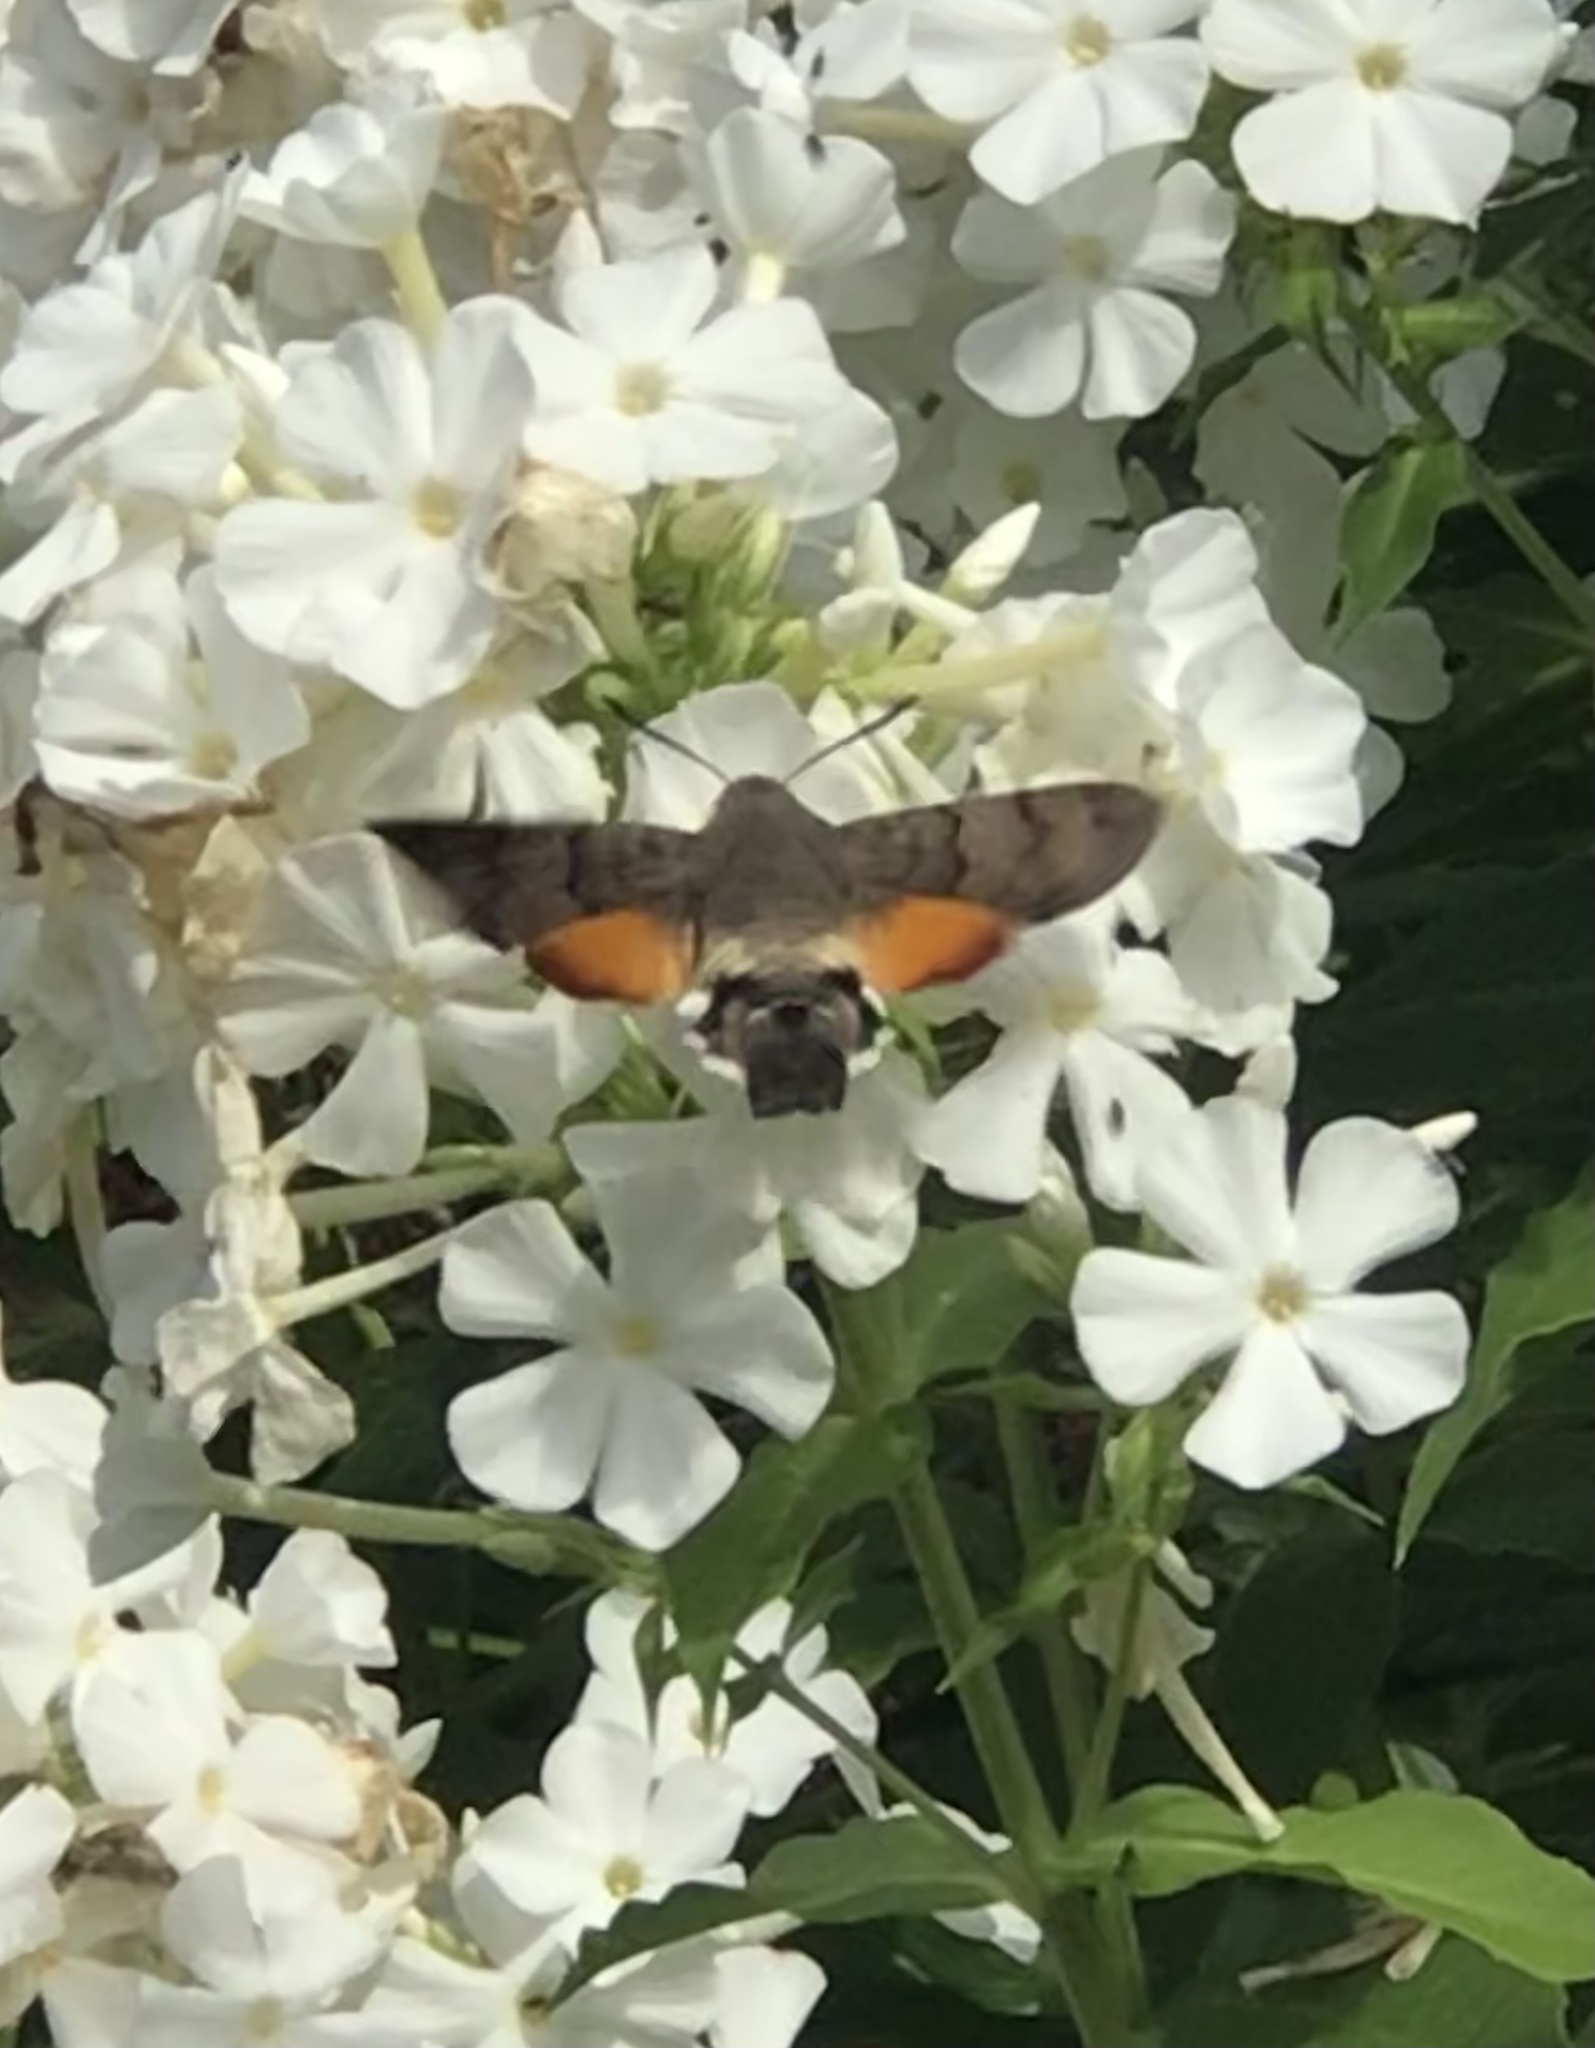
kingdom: Animalia
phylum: Arthropoda
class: Insecta
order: Lepidoptera
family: Sphingidae
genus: Macroglossum
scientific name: Macroglossum stellatarum
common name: Humming-bird hawk-moth
